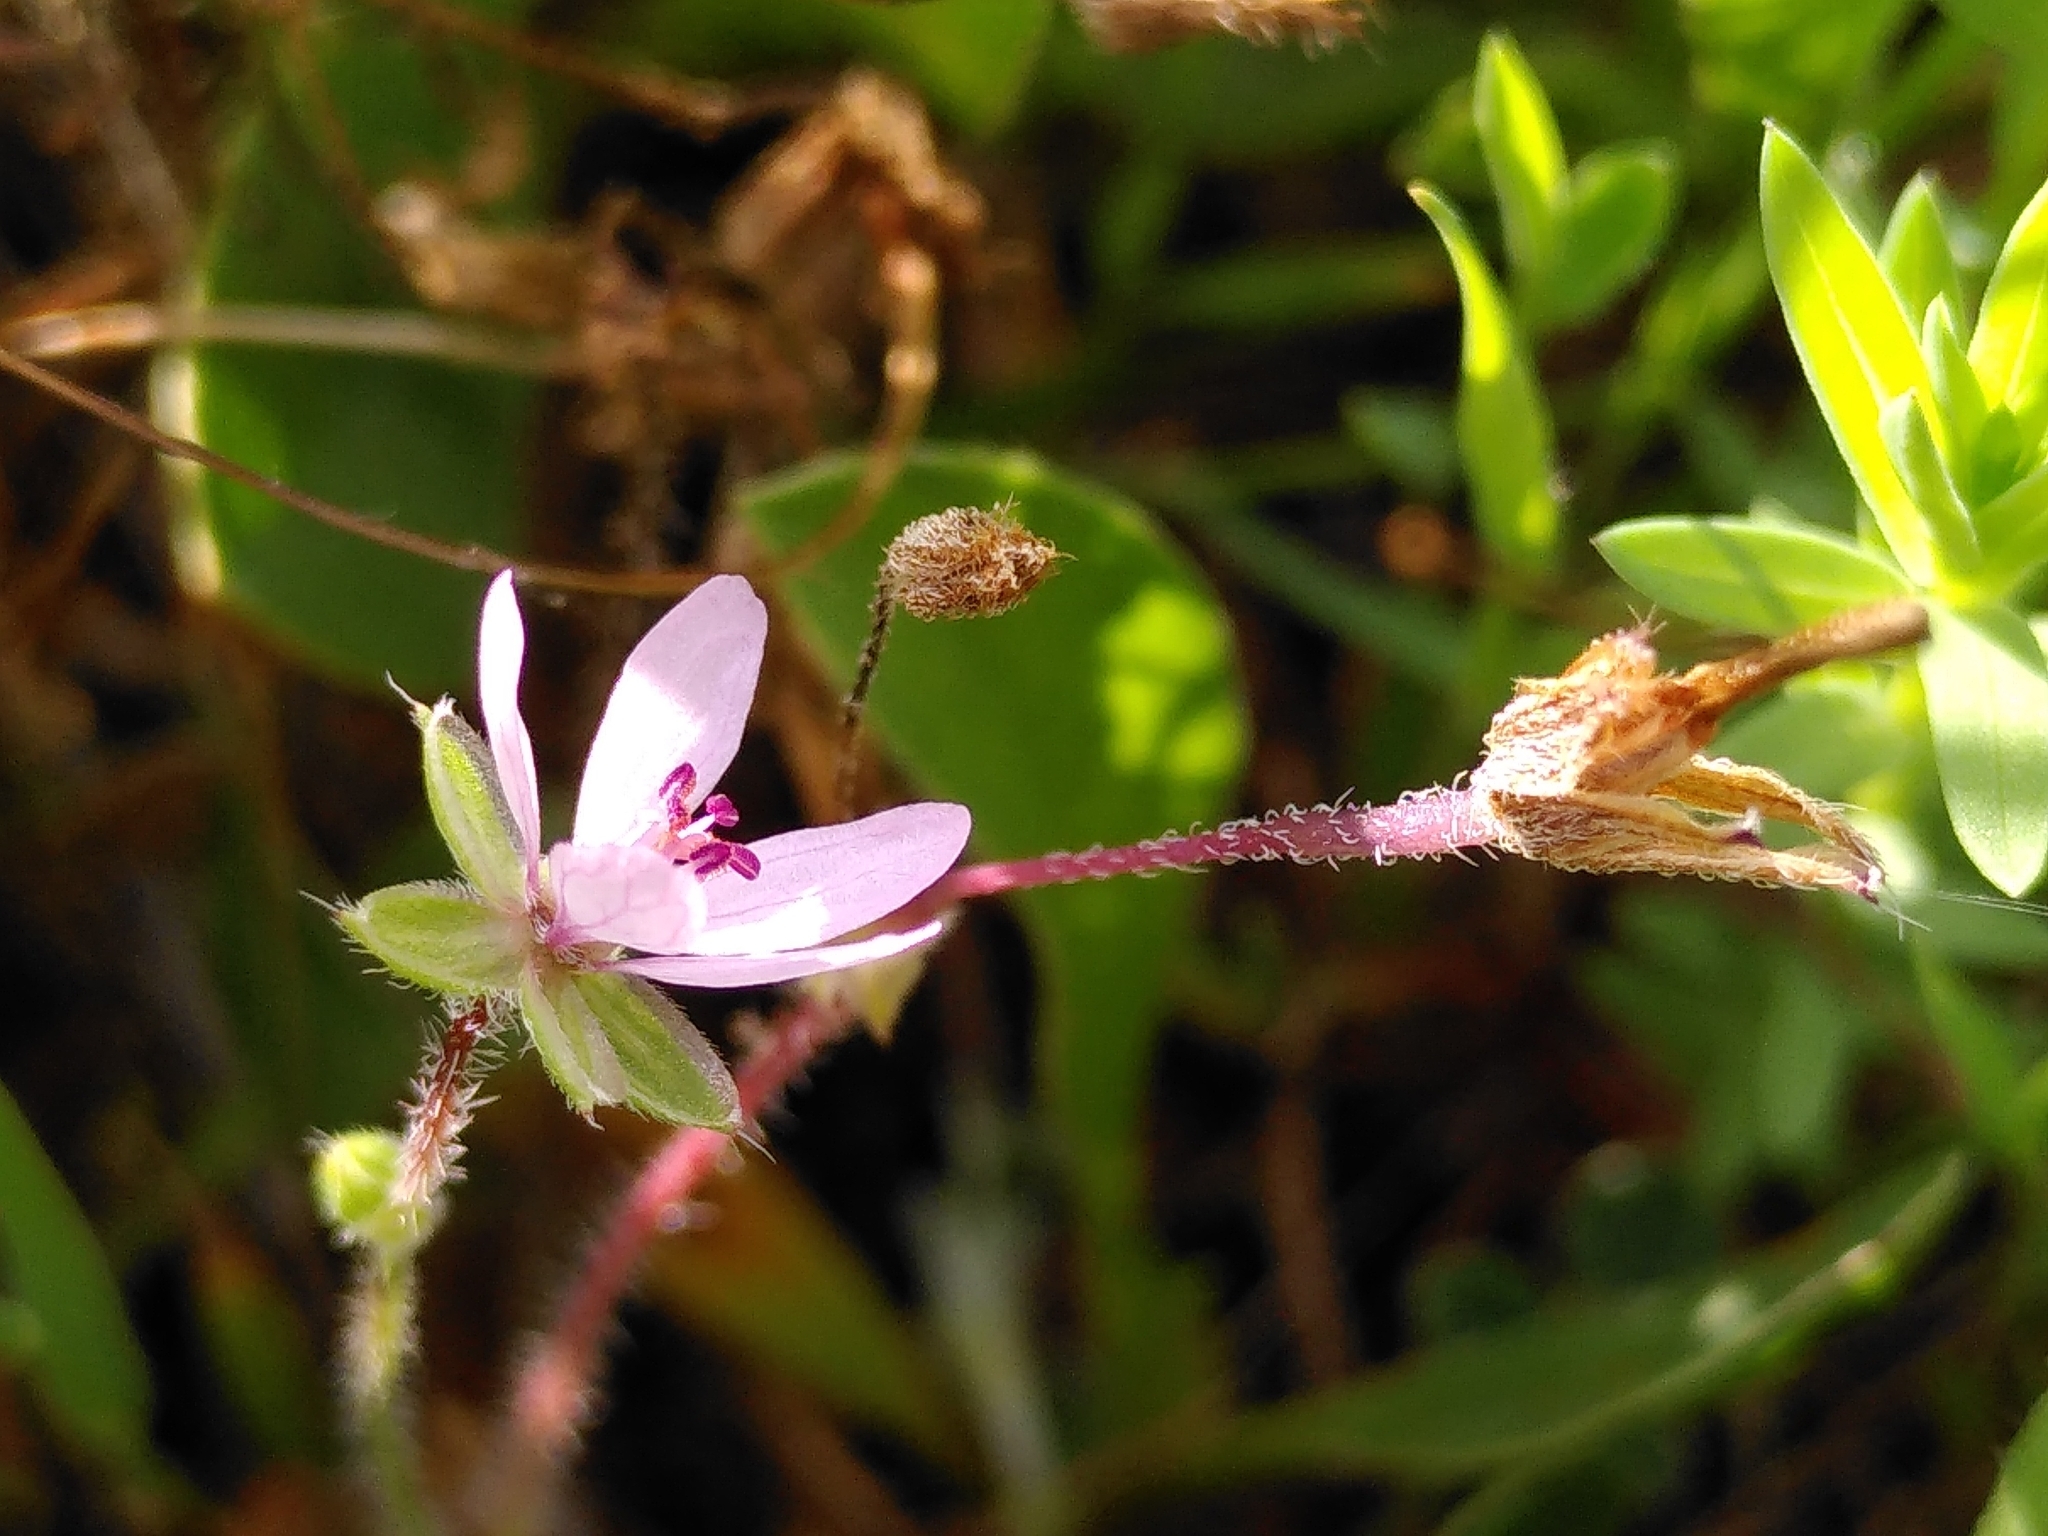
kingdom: Plantae
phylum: Tracheophyta
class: Magnoliopsida
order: Geraniales
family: Geraniaceae
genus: Erodium
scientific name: Erodium cicutarium
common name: Common stork's-bill
